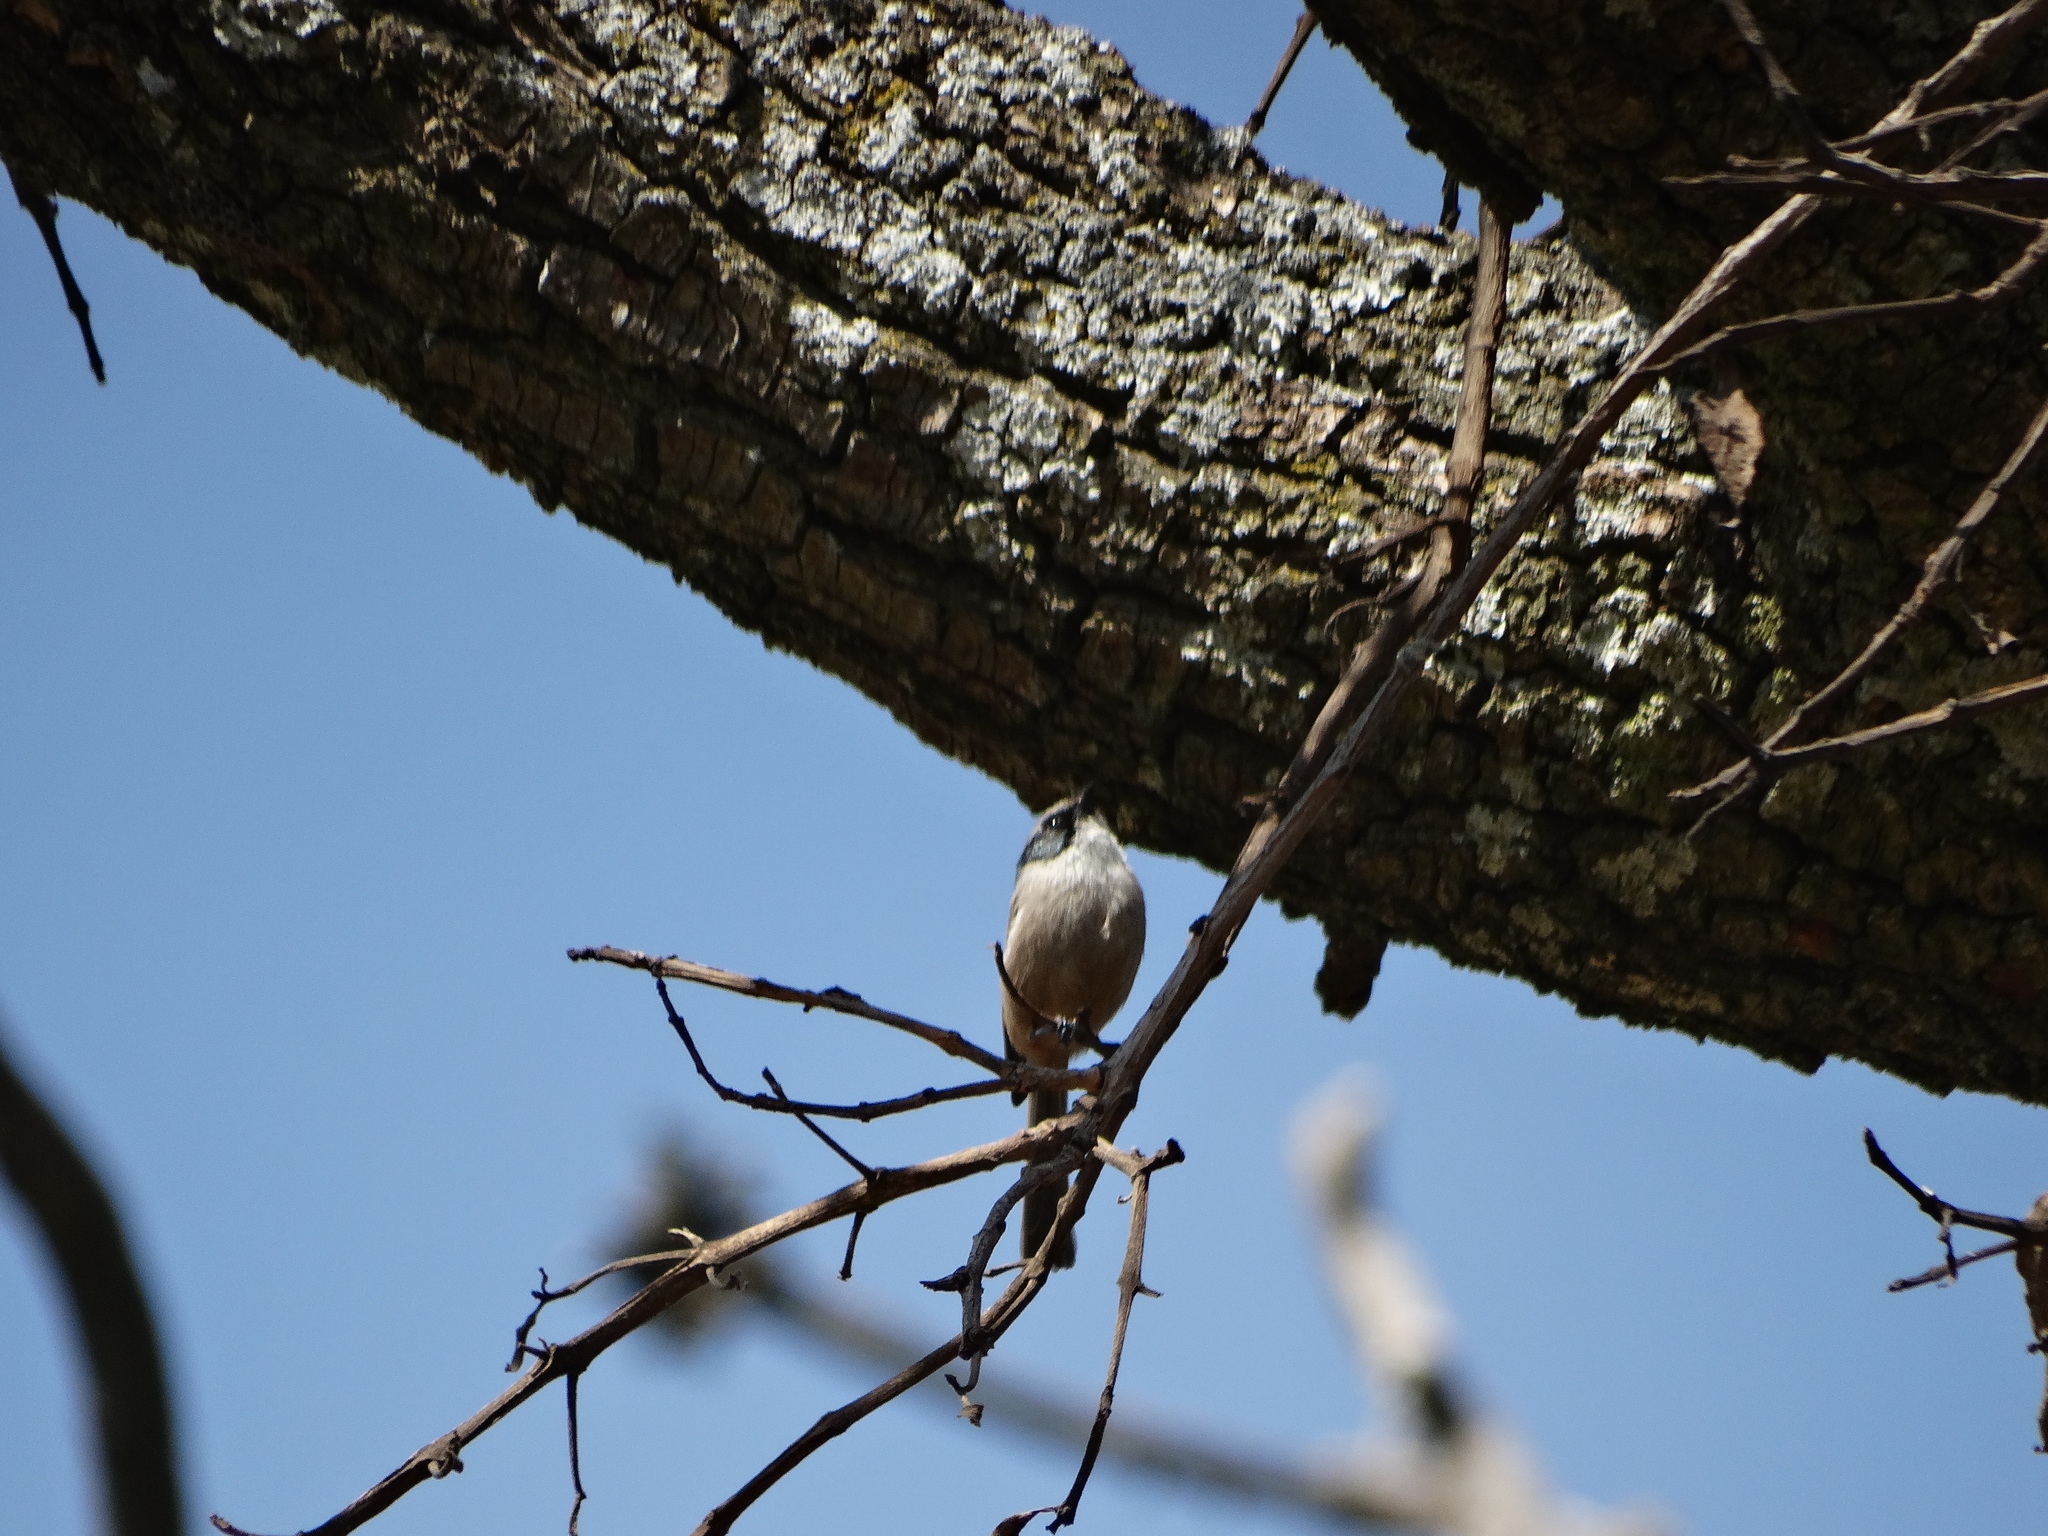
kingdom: Animalia
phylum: Chordata
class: Aves
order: Passeriformes
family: Aegithalidae
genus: Psaltriparus
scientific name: Psaltriparus minimus
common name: American bushtit
